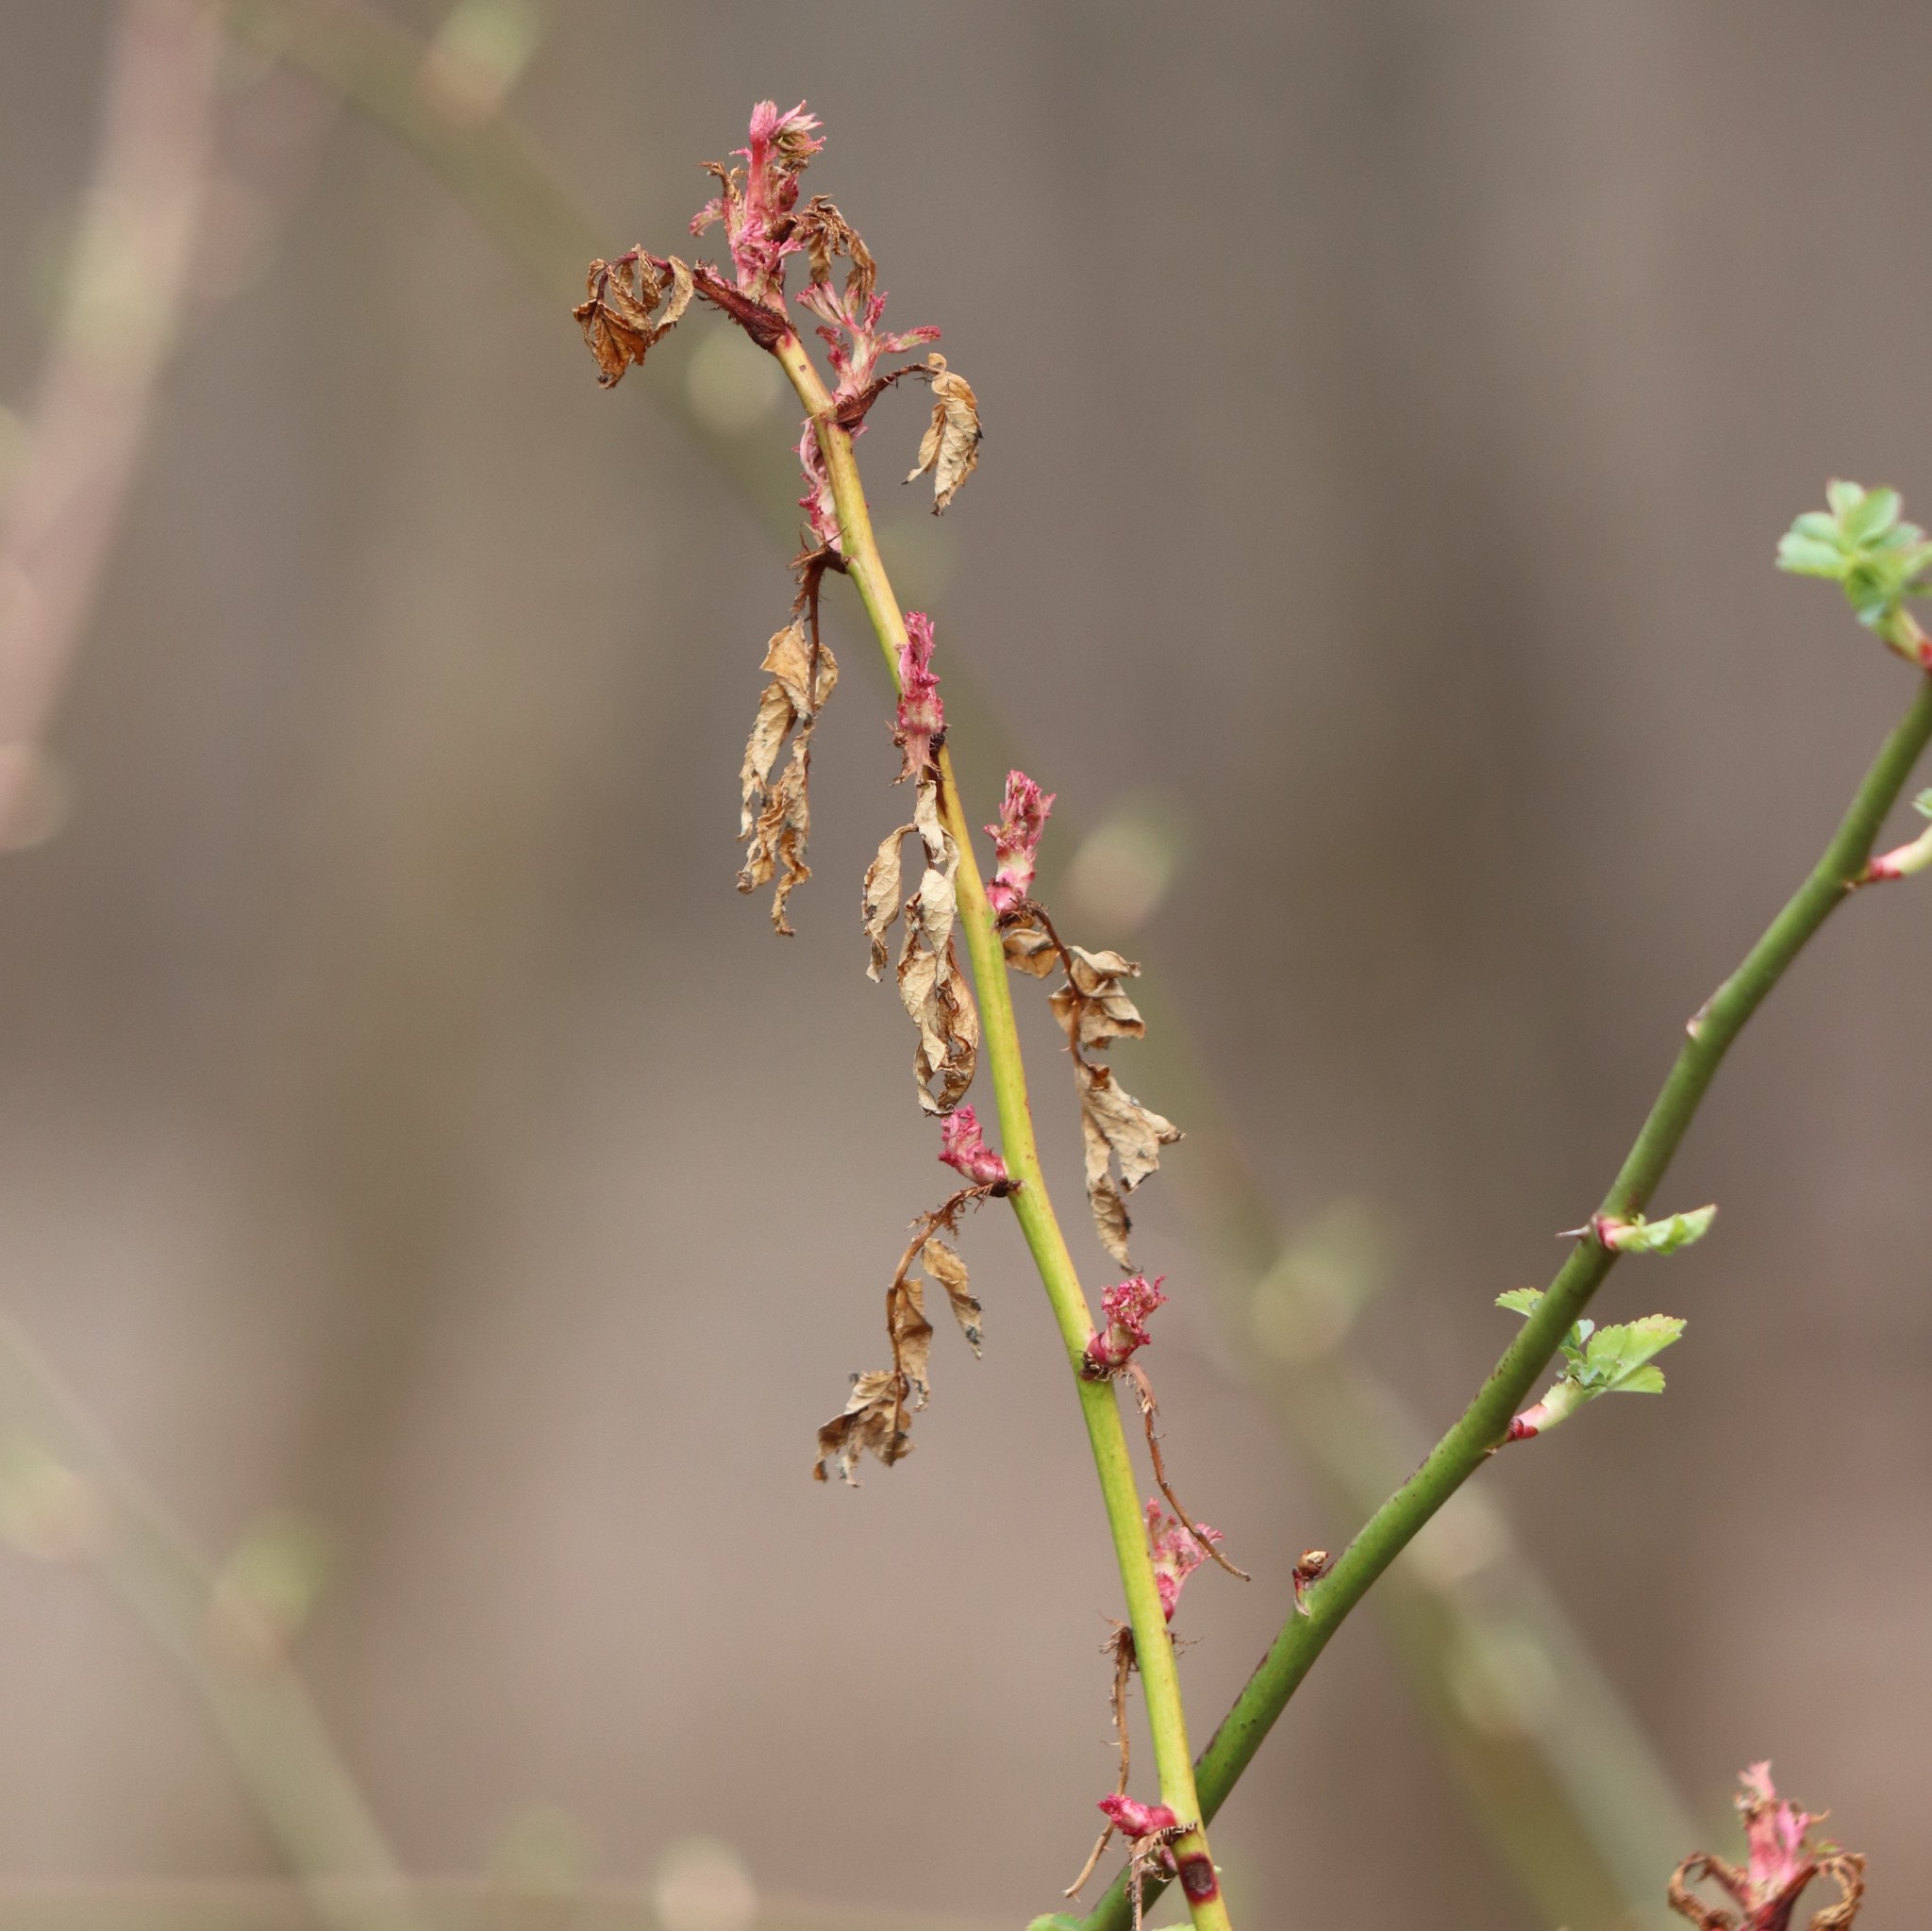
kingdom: Viruses
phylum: Negarnaviricota
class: Ellioviricetes
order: Bunyavirales
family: Fimoviridae
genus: Emaravirus
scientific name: Emaravirus rosae
